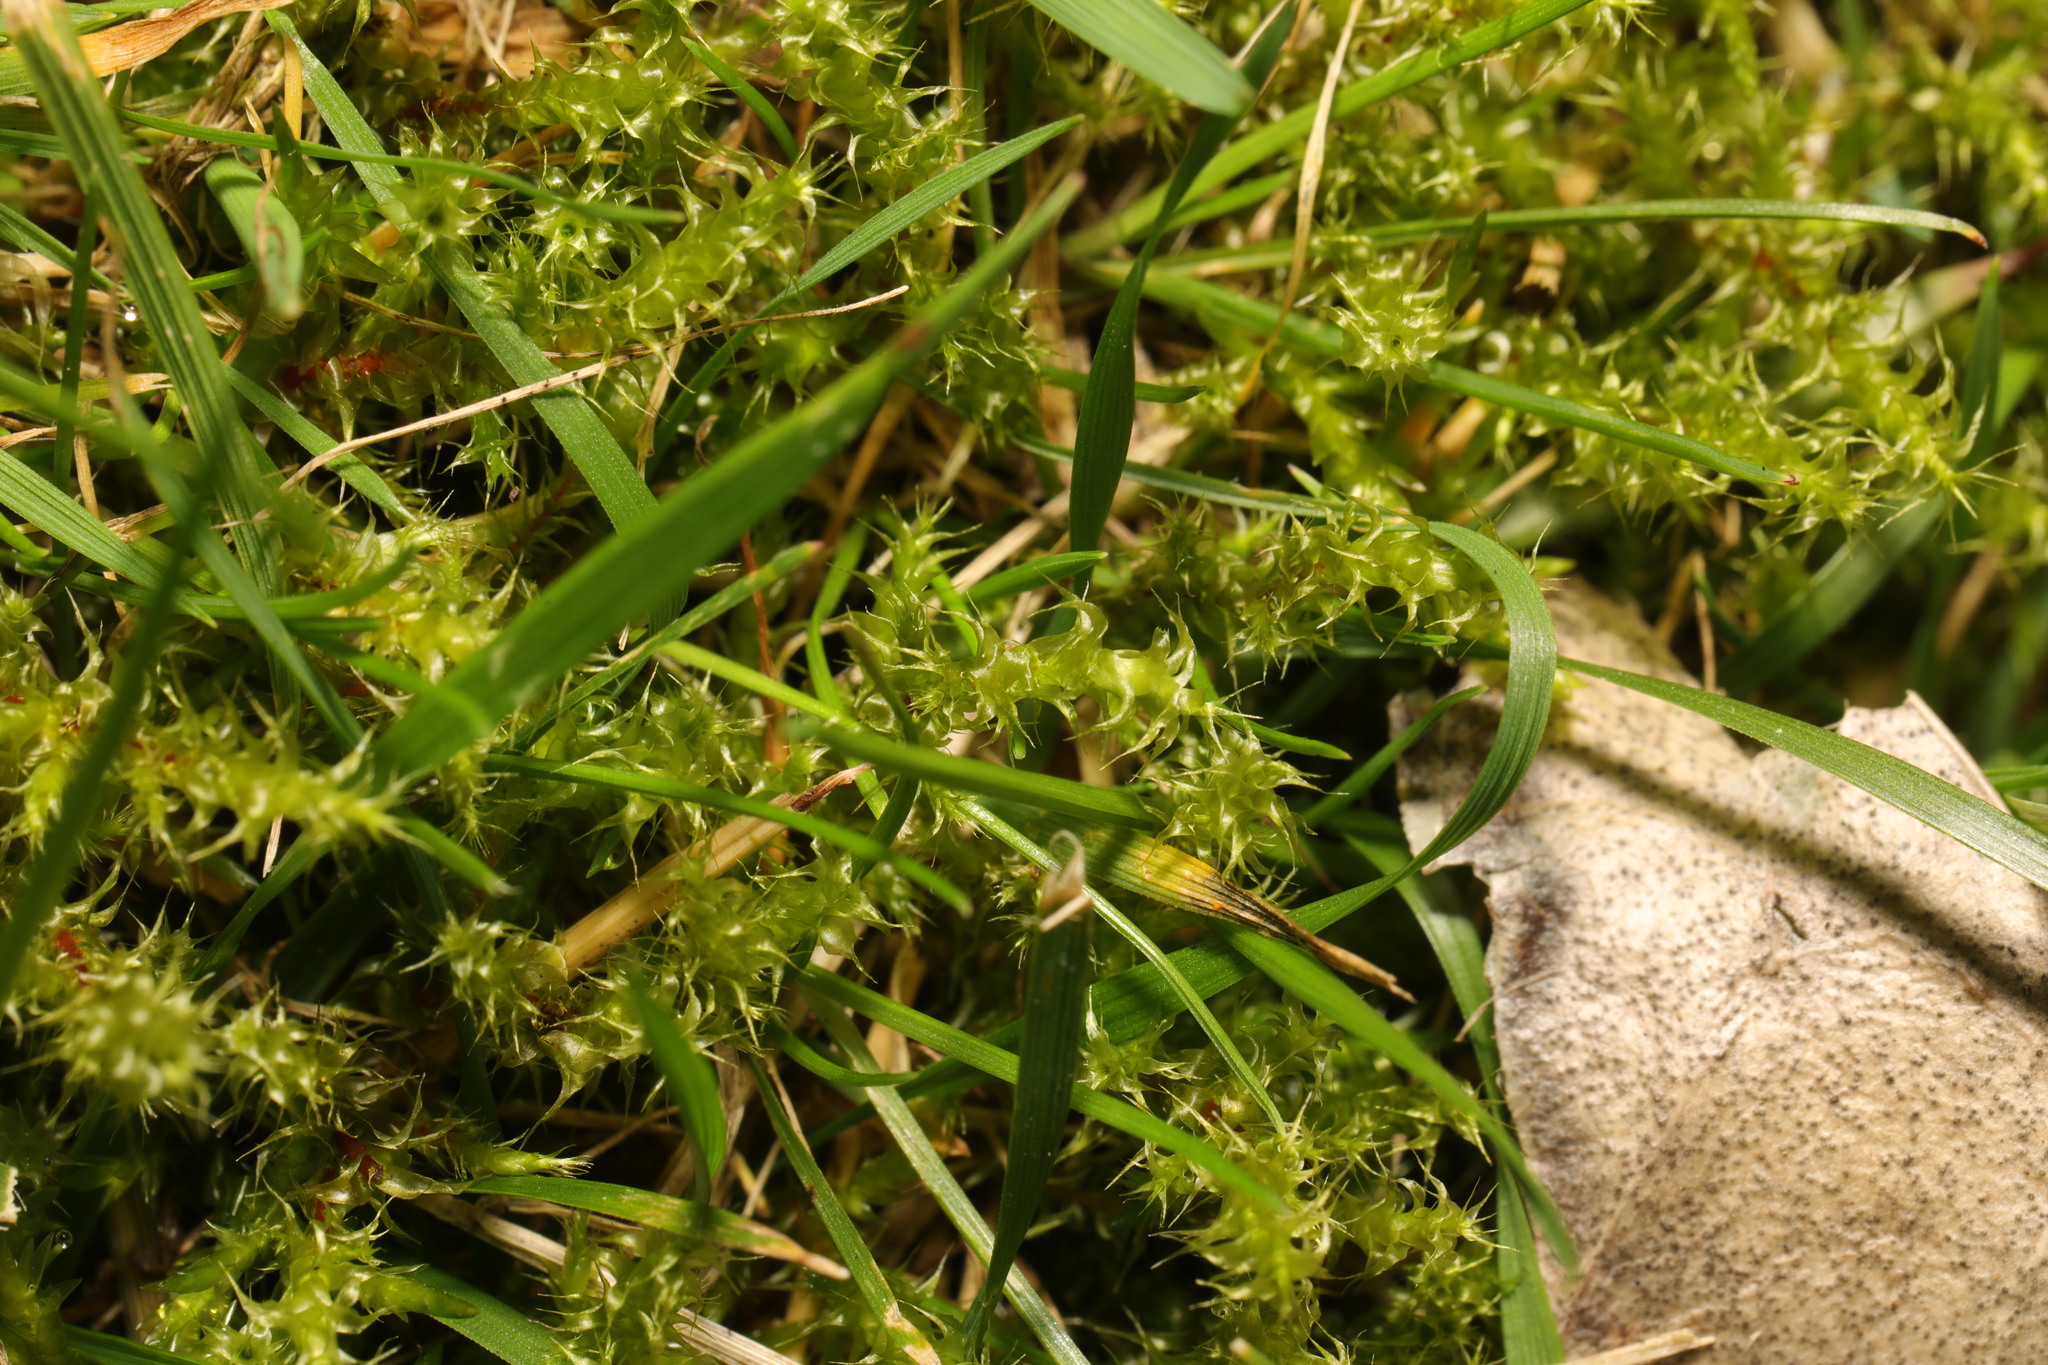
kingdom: Plantae
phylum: Bryophyta
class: Bryopsida
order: Hypnales
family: Hylocomiaceae
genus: Rhytidiadelphus
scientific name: Rhytidiadelphus squarrosus
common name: Springy turf-moss
